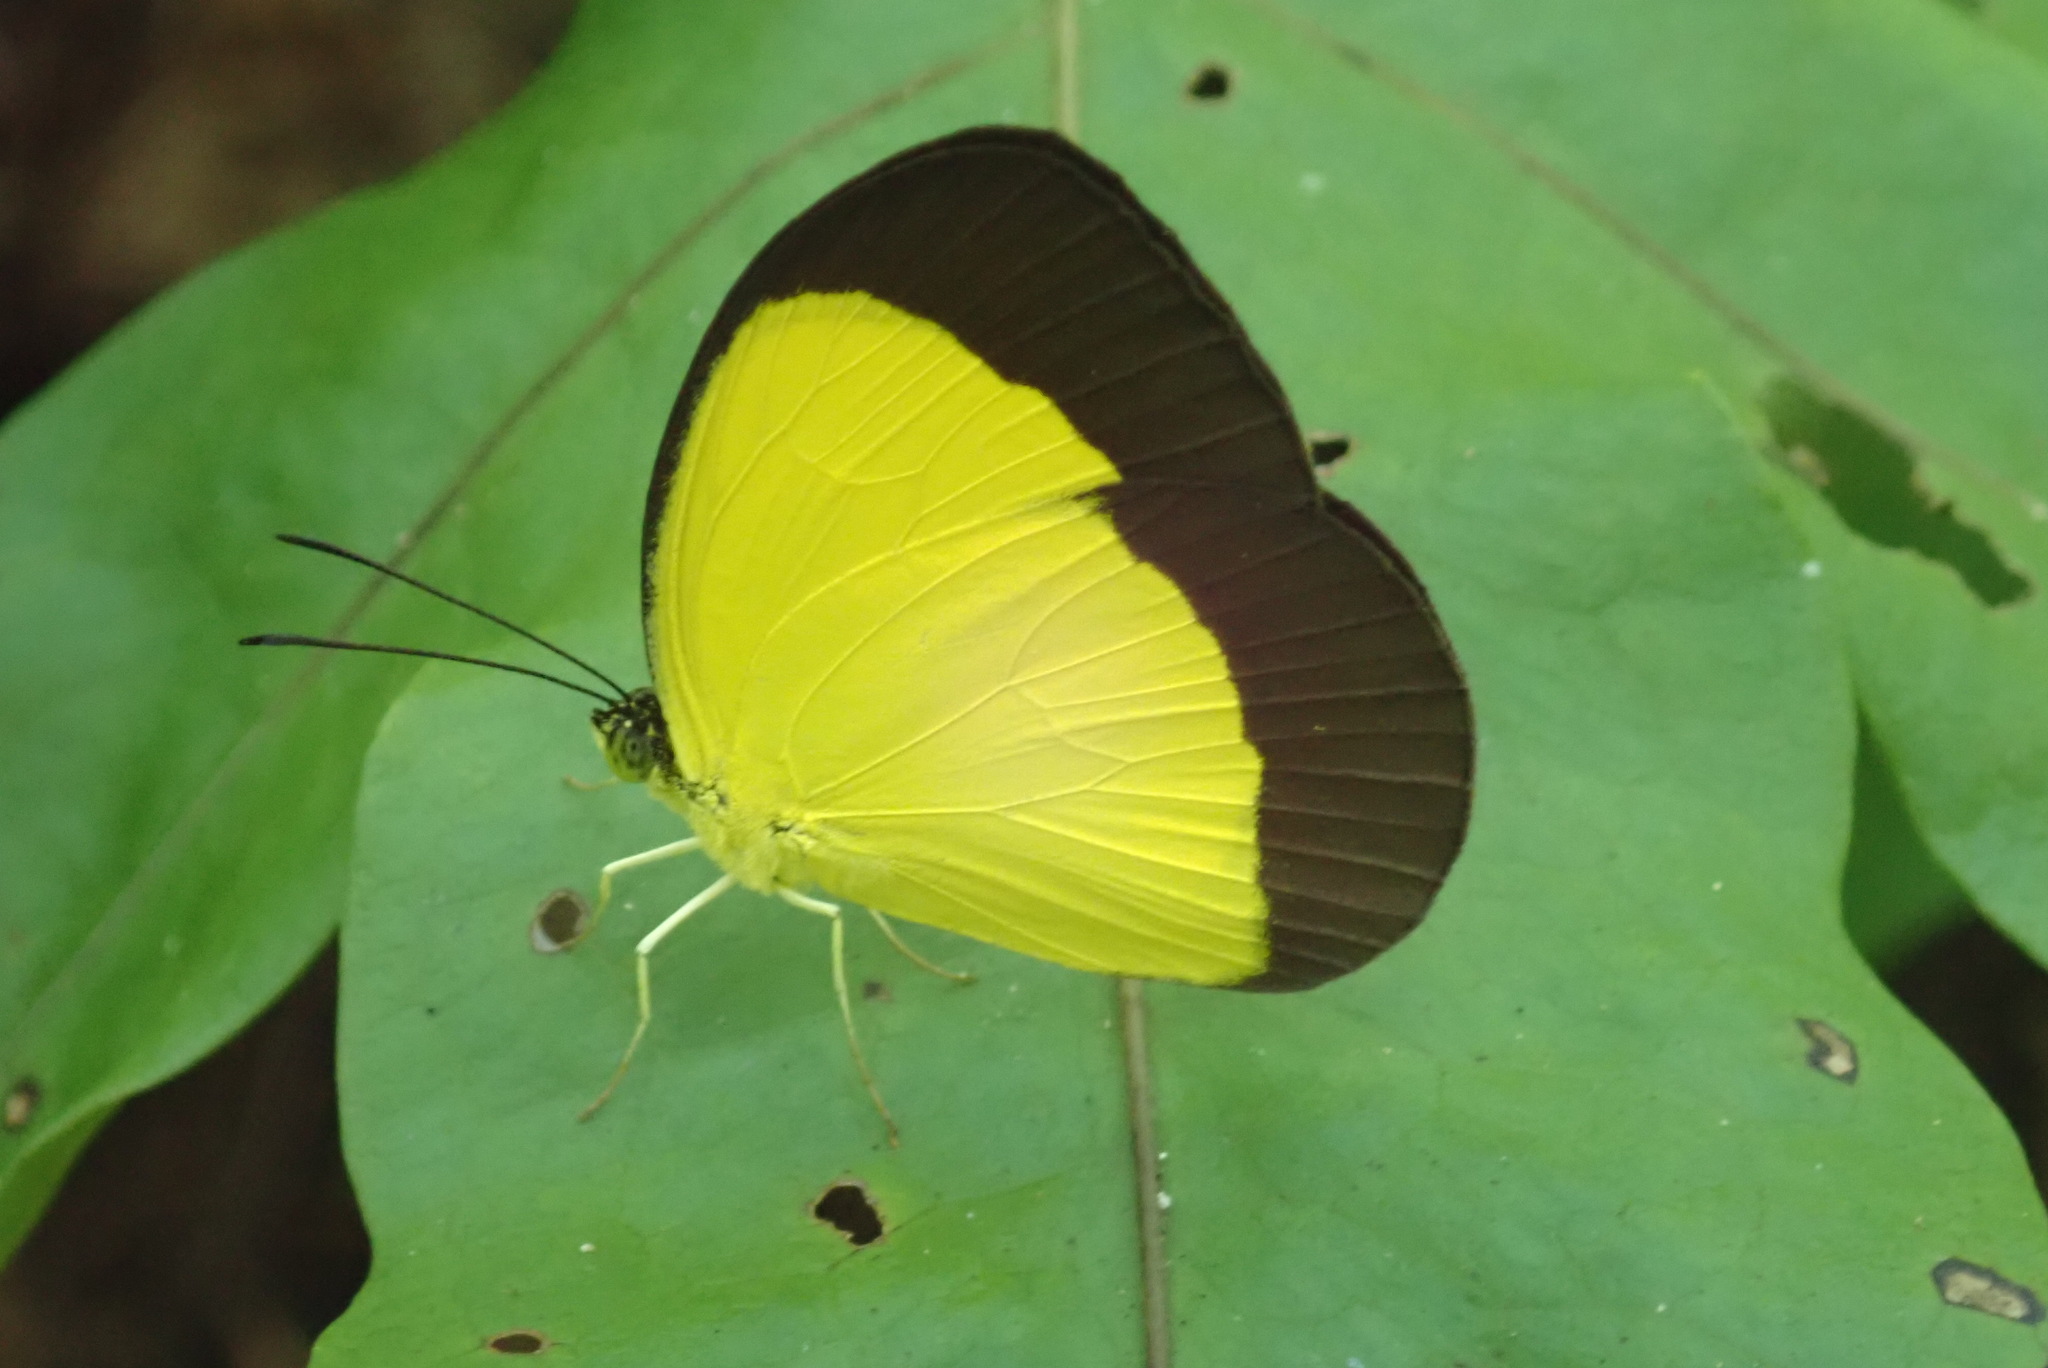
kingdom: Animalia
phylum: Arthropoda
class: Insecta
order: Lepidoptera
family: Pieridae
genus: Eurema
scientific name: Eurema candida
